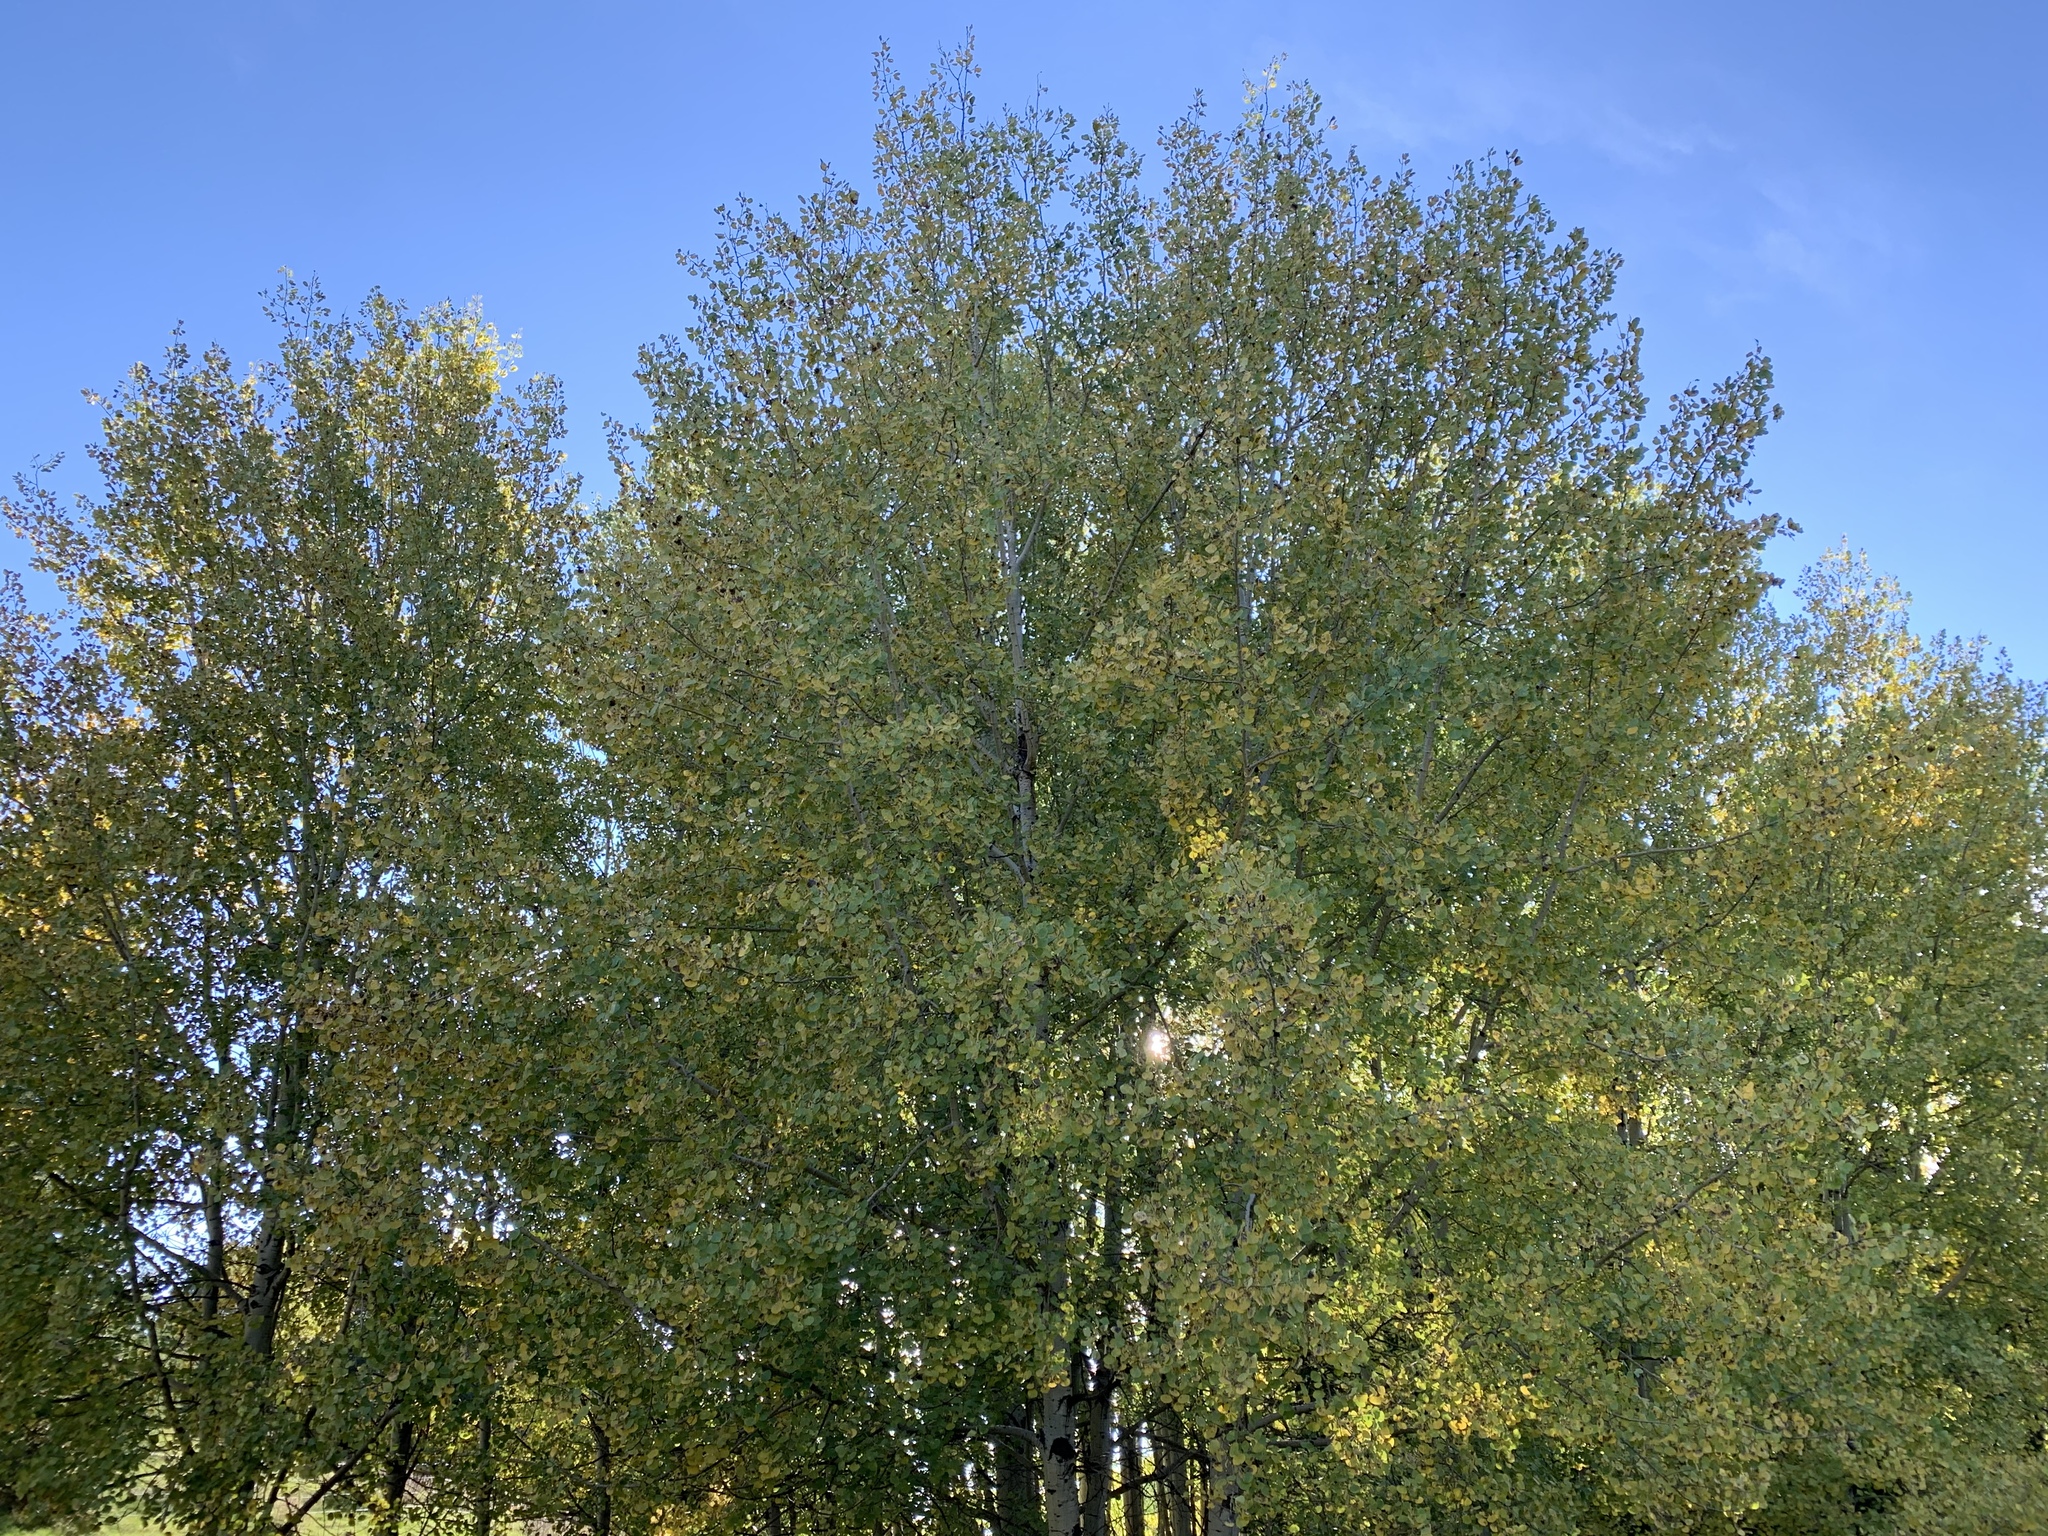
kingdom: Plantae
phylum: Tracheophyta
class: Magnoliopsida
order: Malpighiales
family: Salicaceae
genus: Populus
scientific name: Populus tremuloides
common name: Quaking aspen
